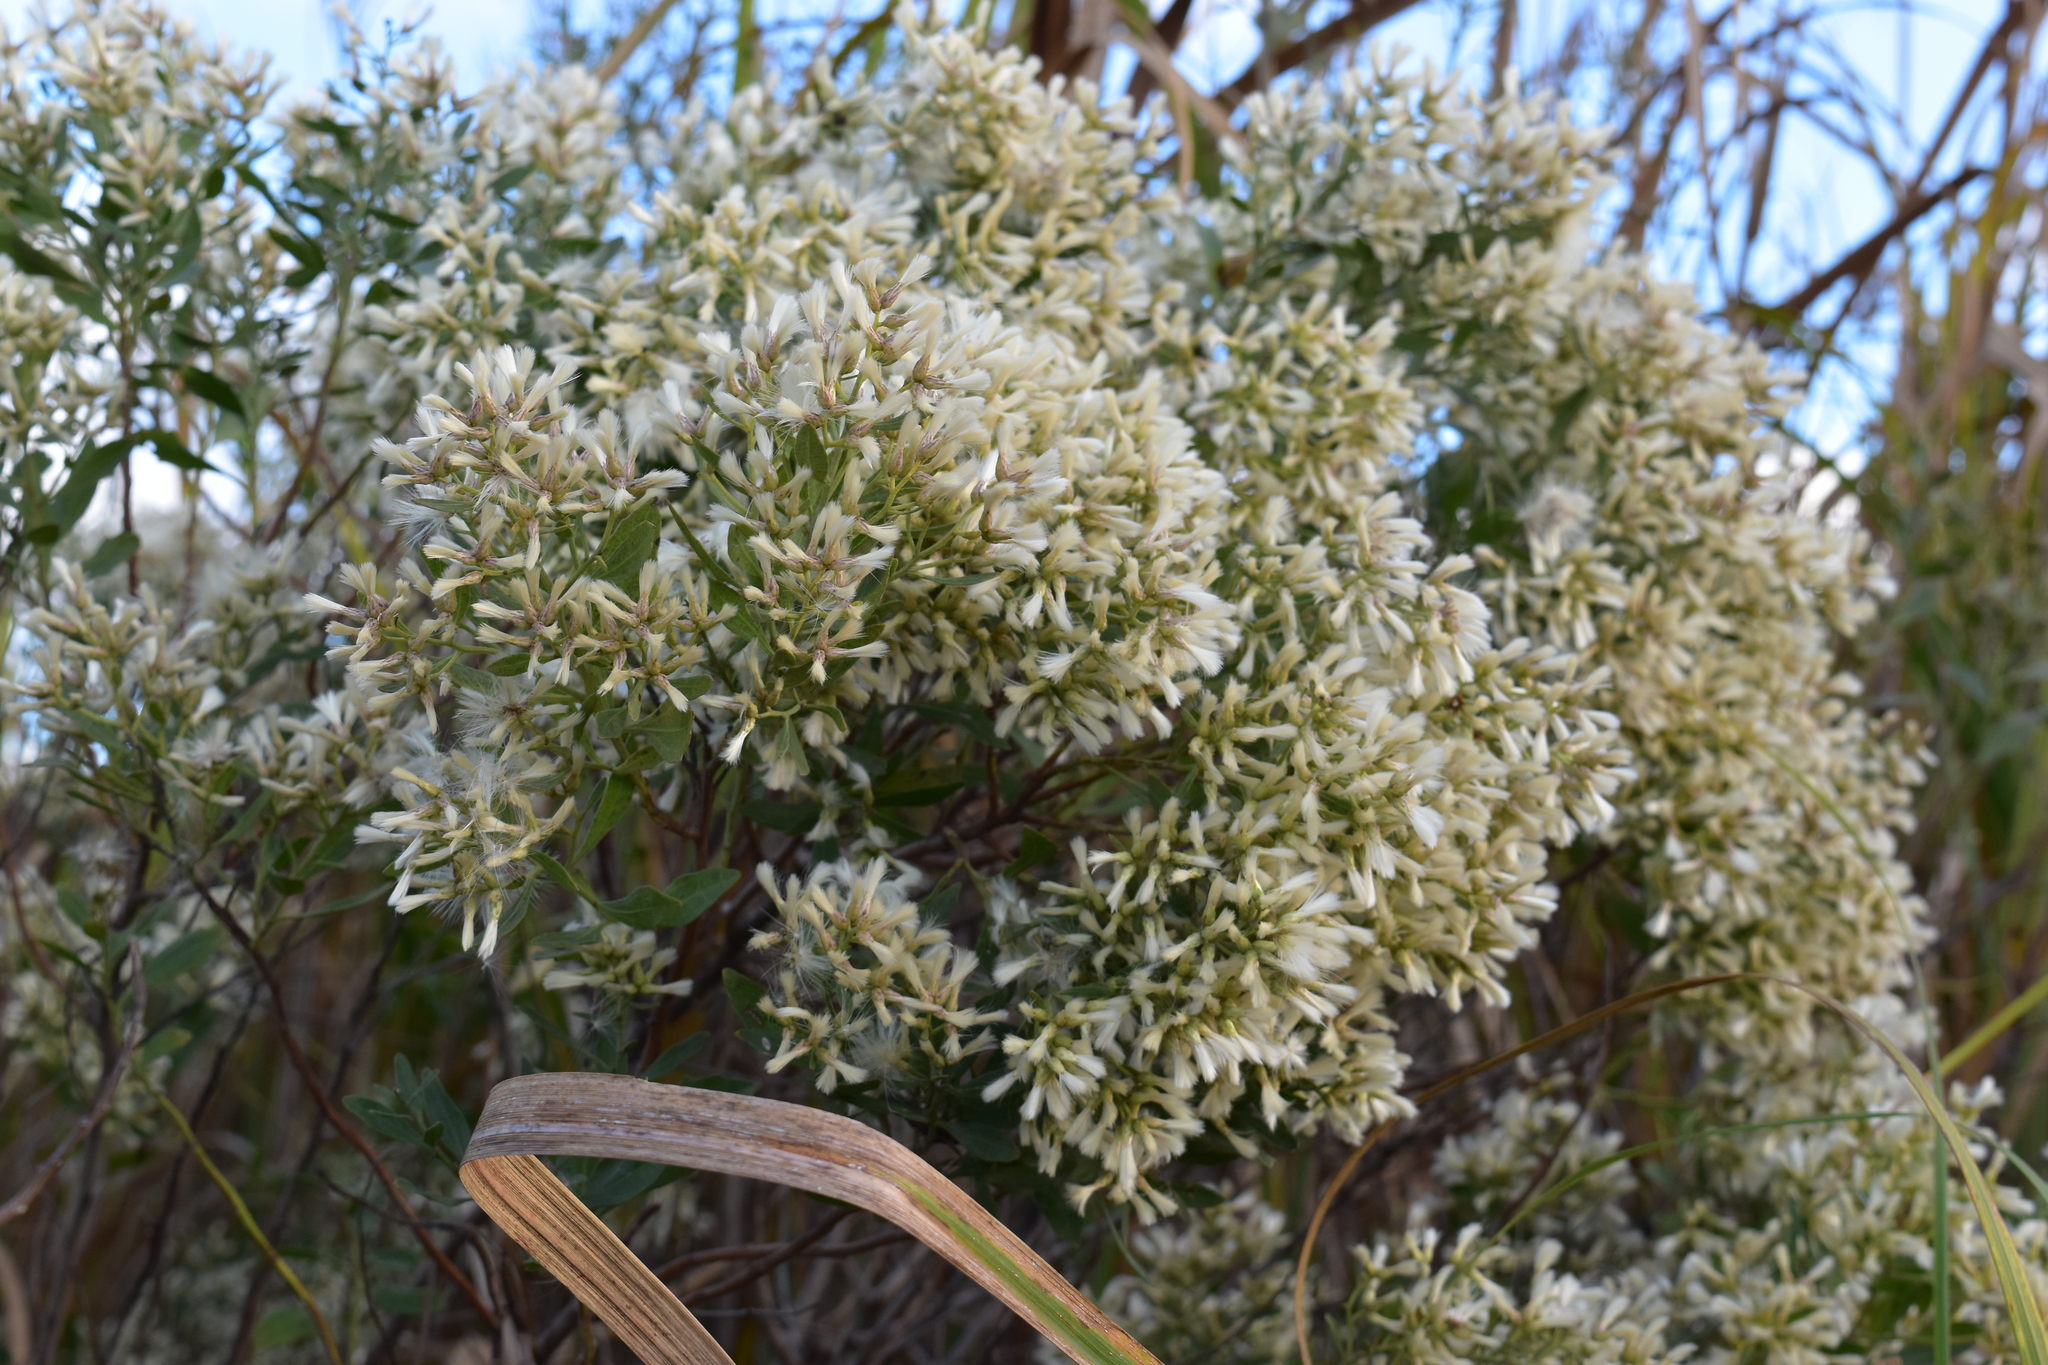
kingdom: Plantae
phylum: Tracheophyta
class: Magnoliopsida
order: Asterales
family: Asteraceae
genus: Baccharis
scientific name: Baccharis halimifolia
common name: Eastern baccharis
